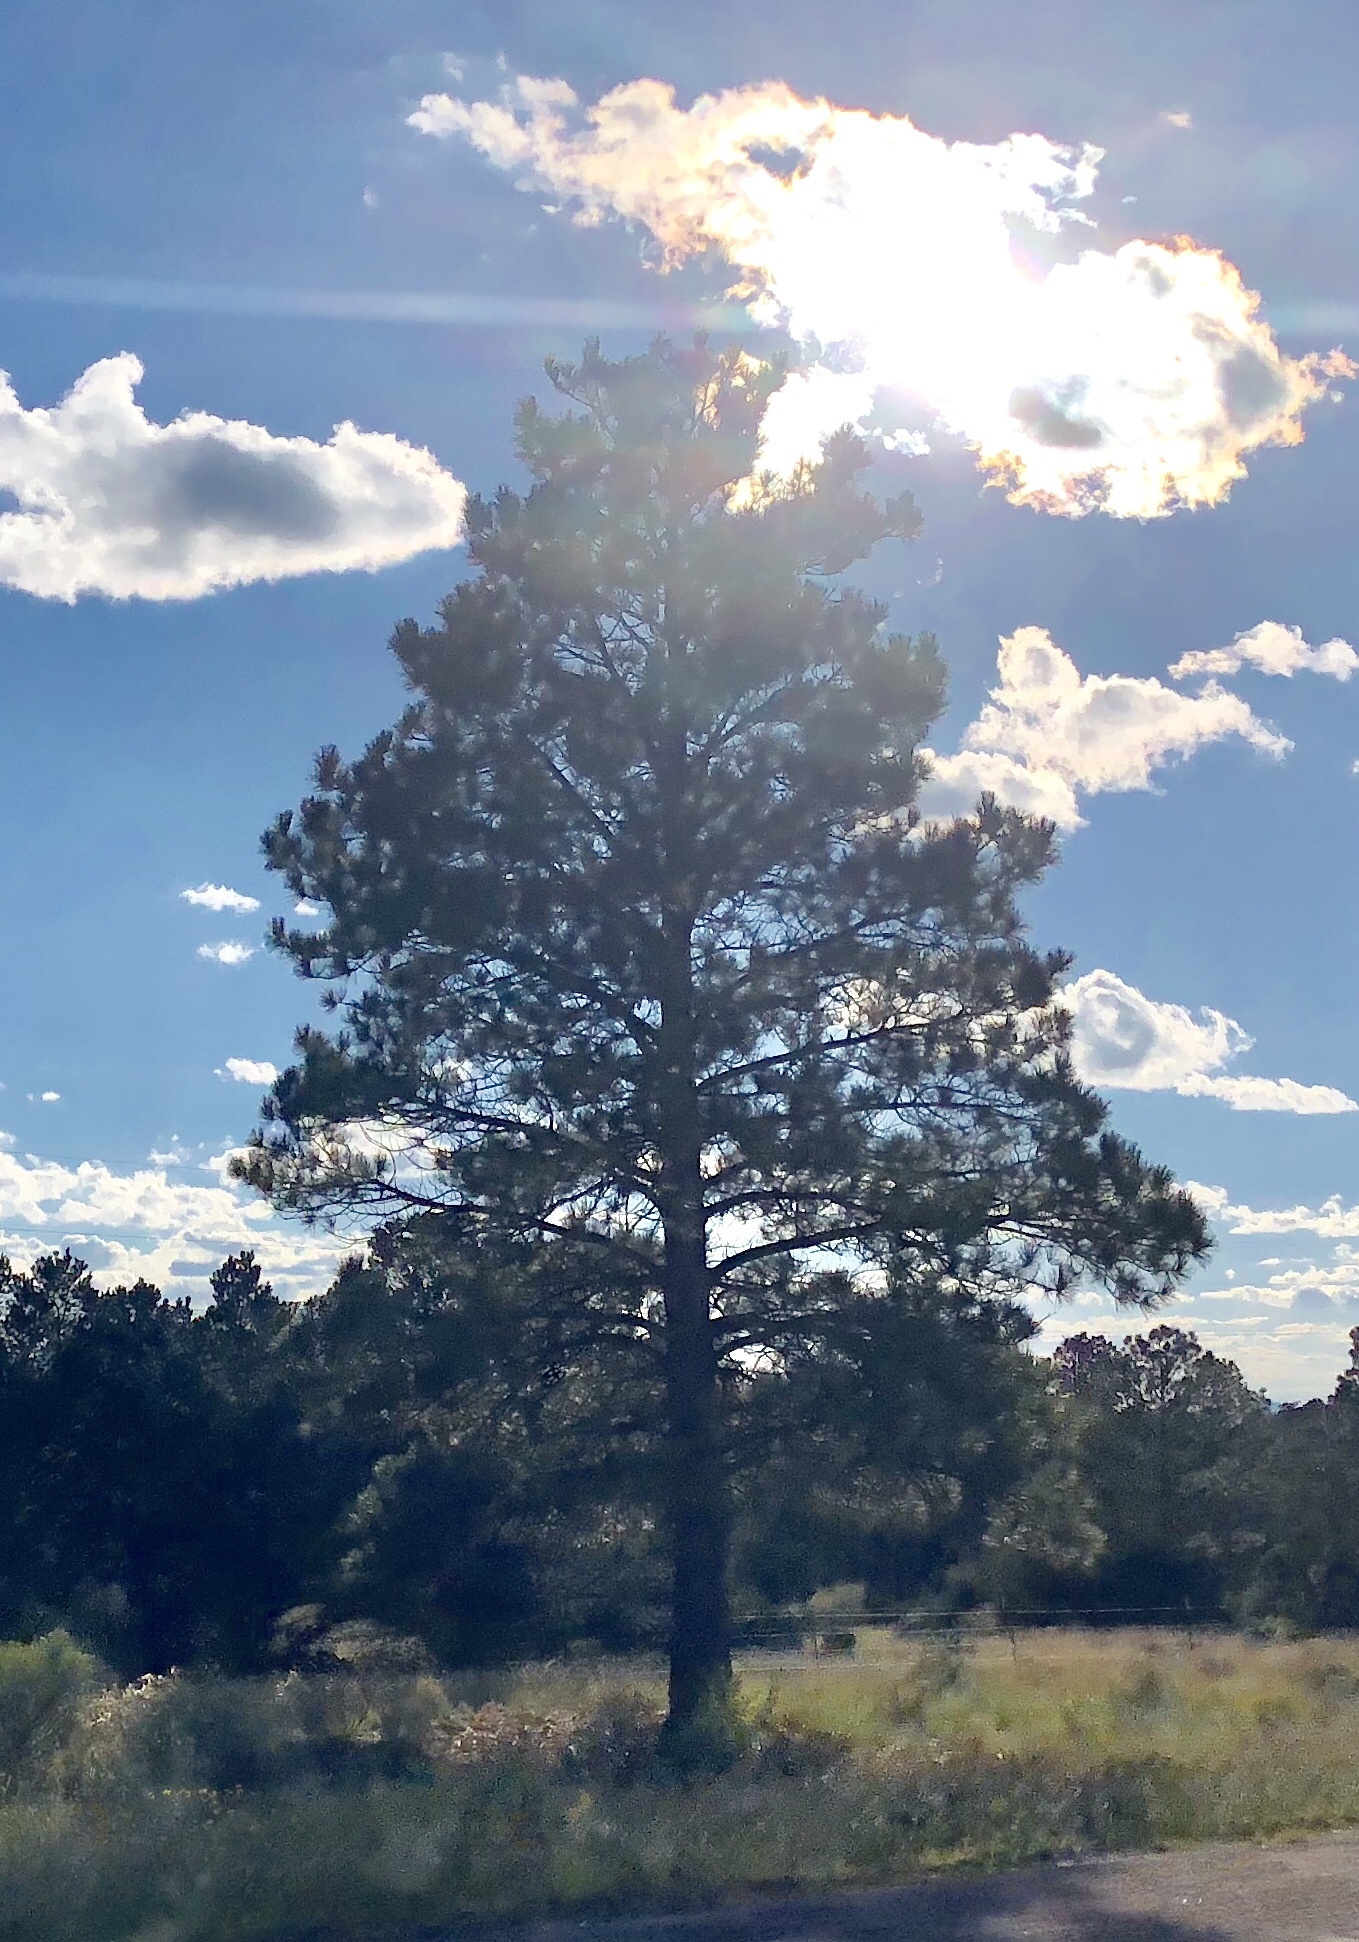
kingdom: Plantae
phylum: Tracheophyta
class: Pinopsida
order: Pinales
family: Pinaceae
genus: Pinus
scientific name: Pinus ponderosa
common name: Western yellow-pine
